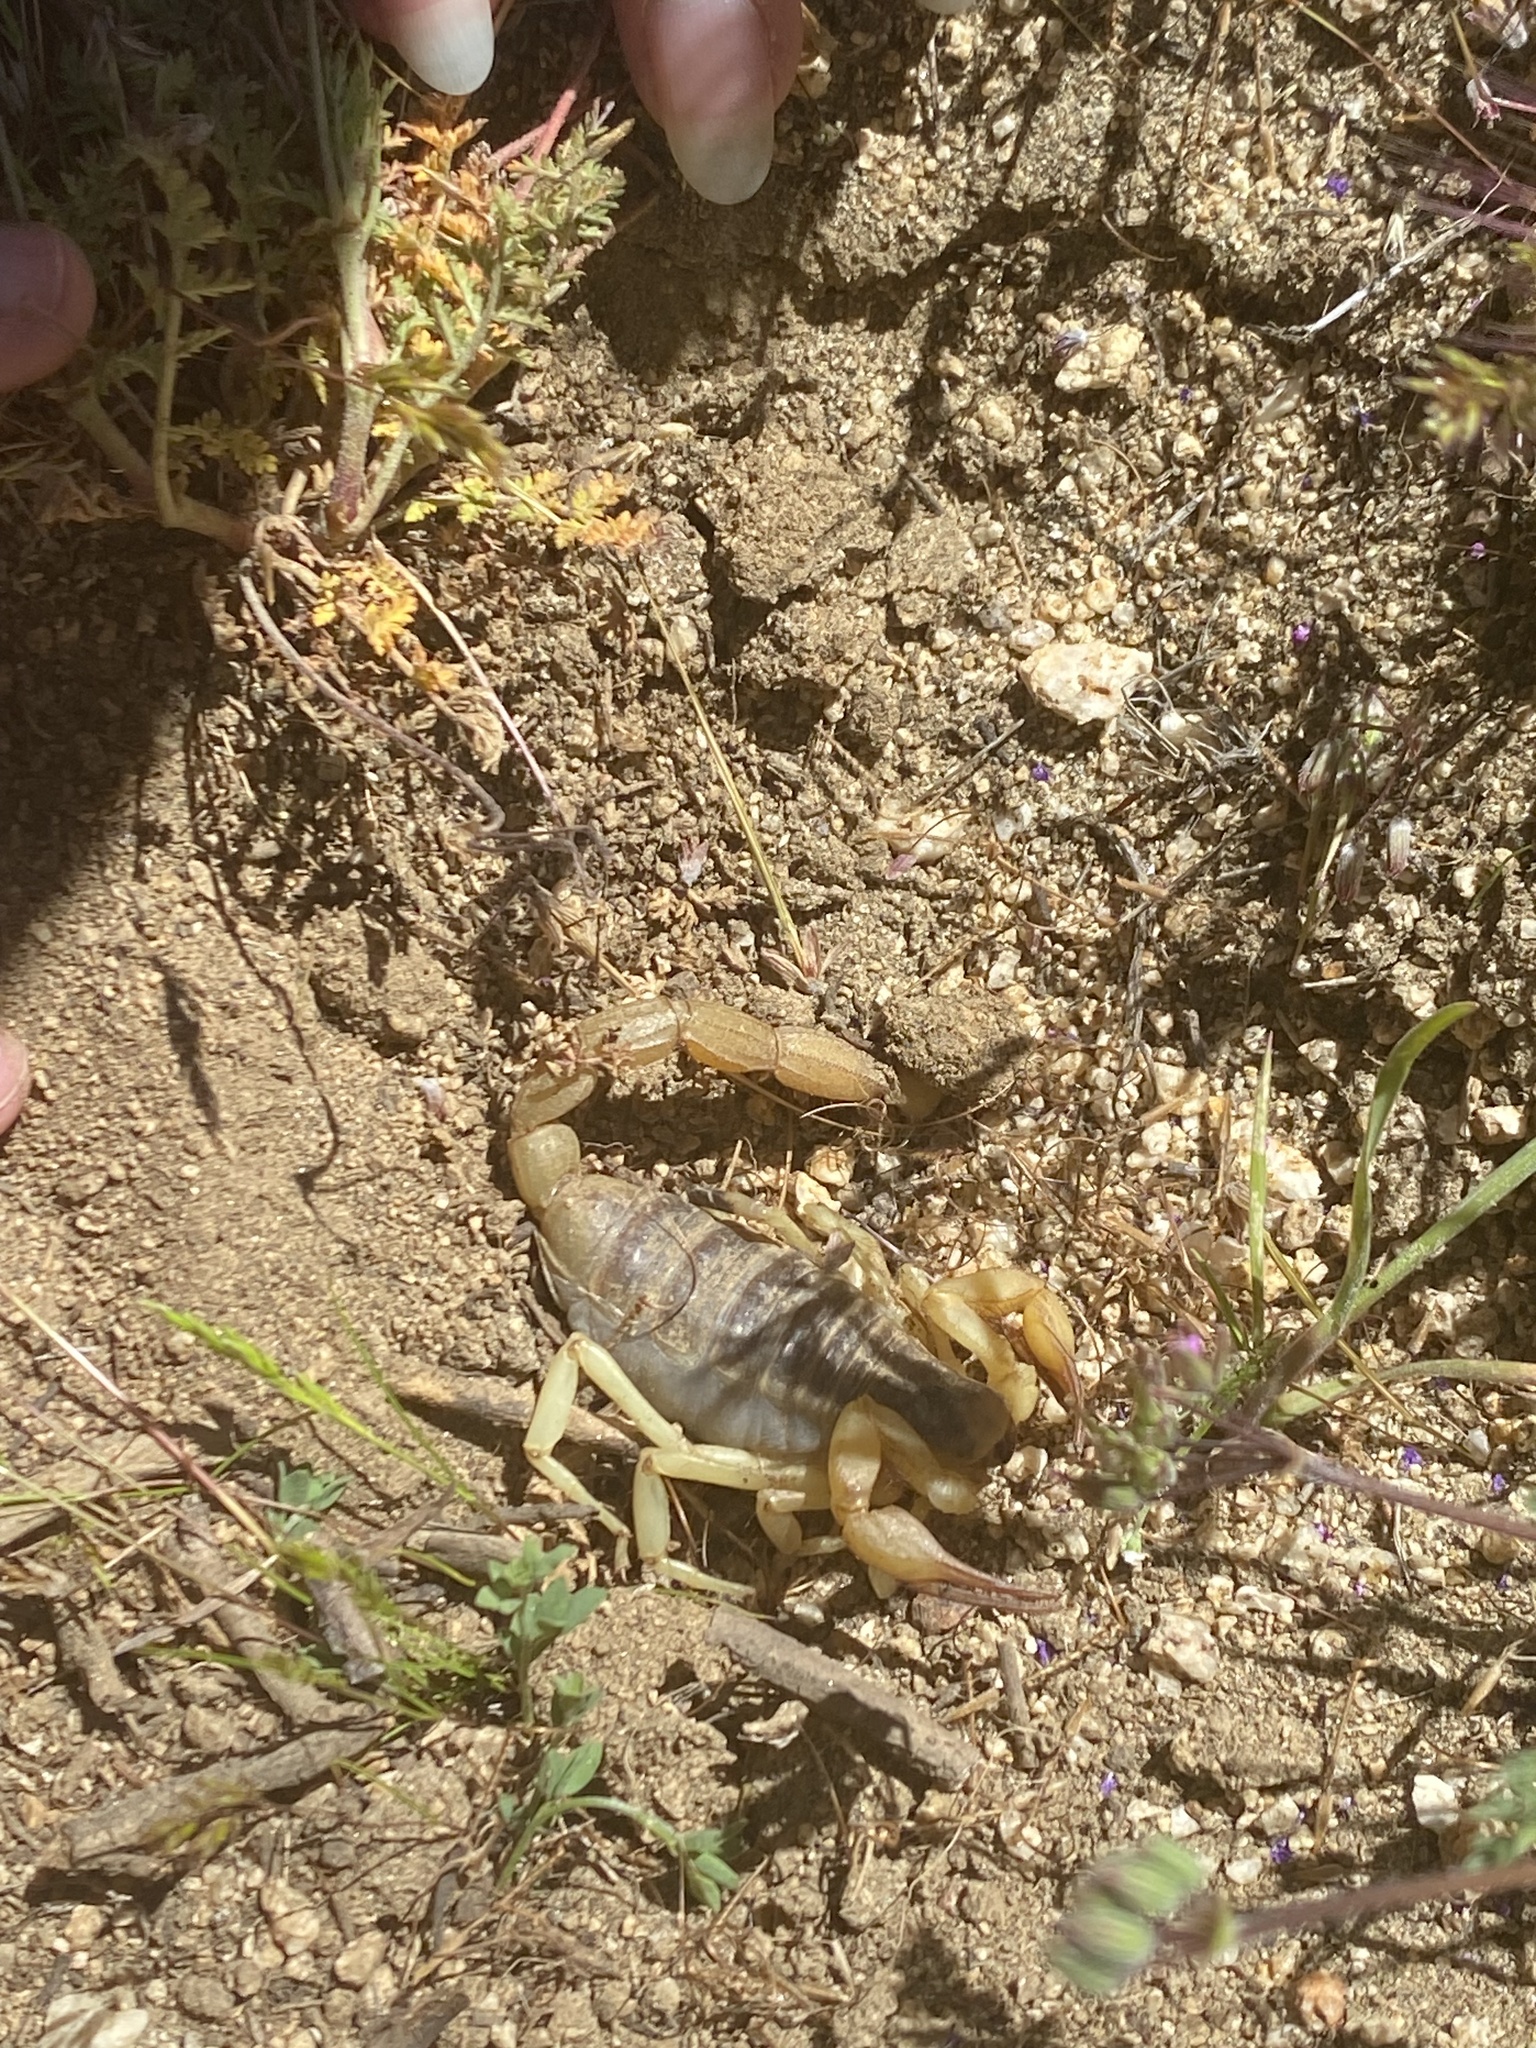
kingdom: Animalia
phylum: Arthropoda
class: Arachnida
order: Scorpiones
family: Hadruridae
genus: Hadrurus
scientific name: Hadrurus anzaborrego
